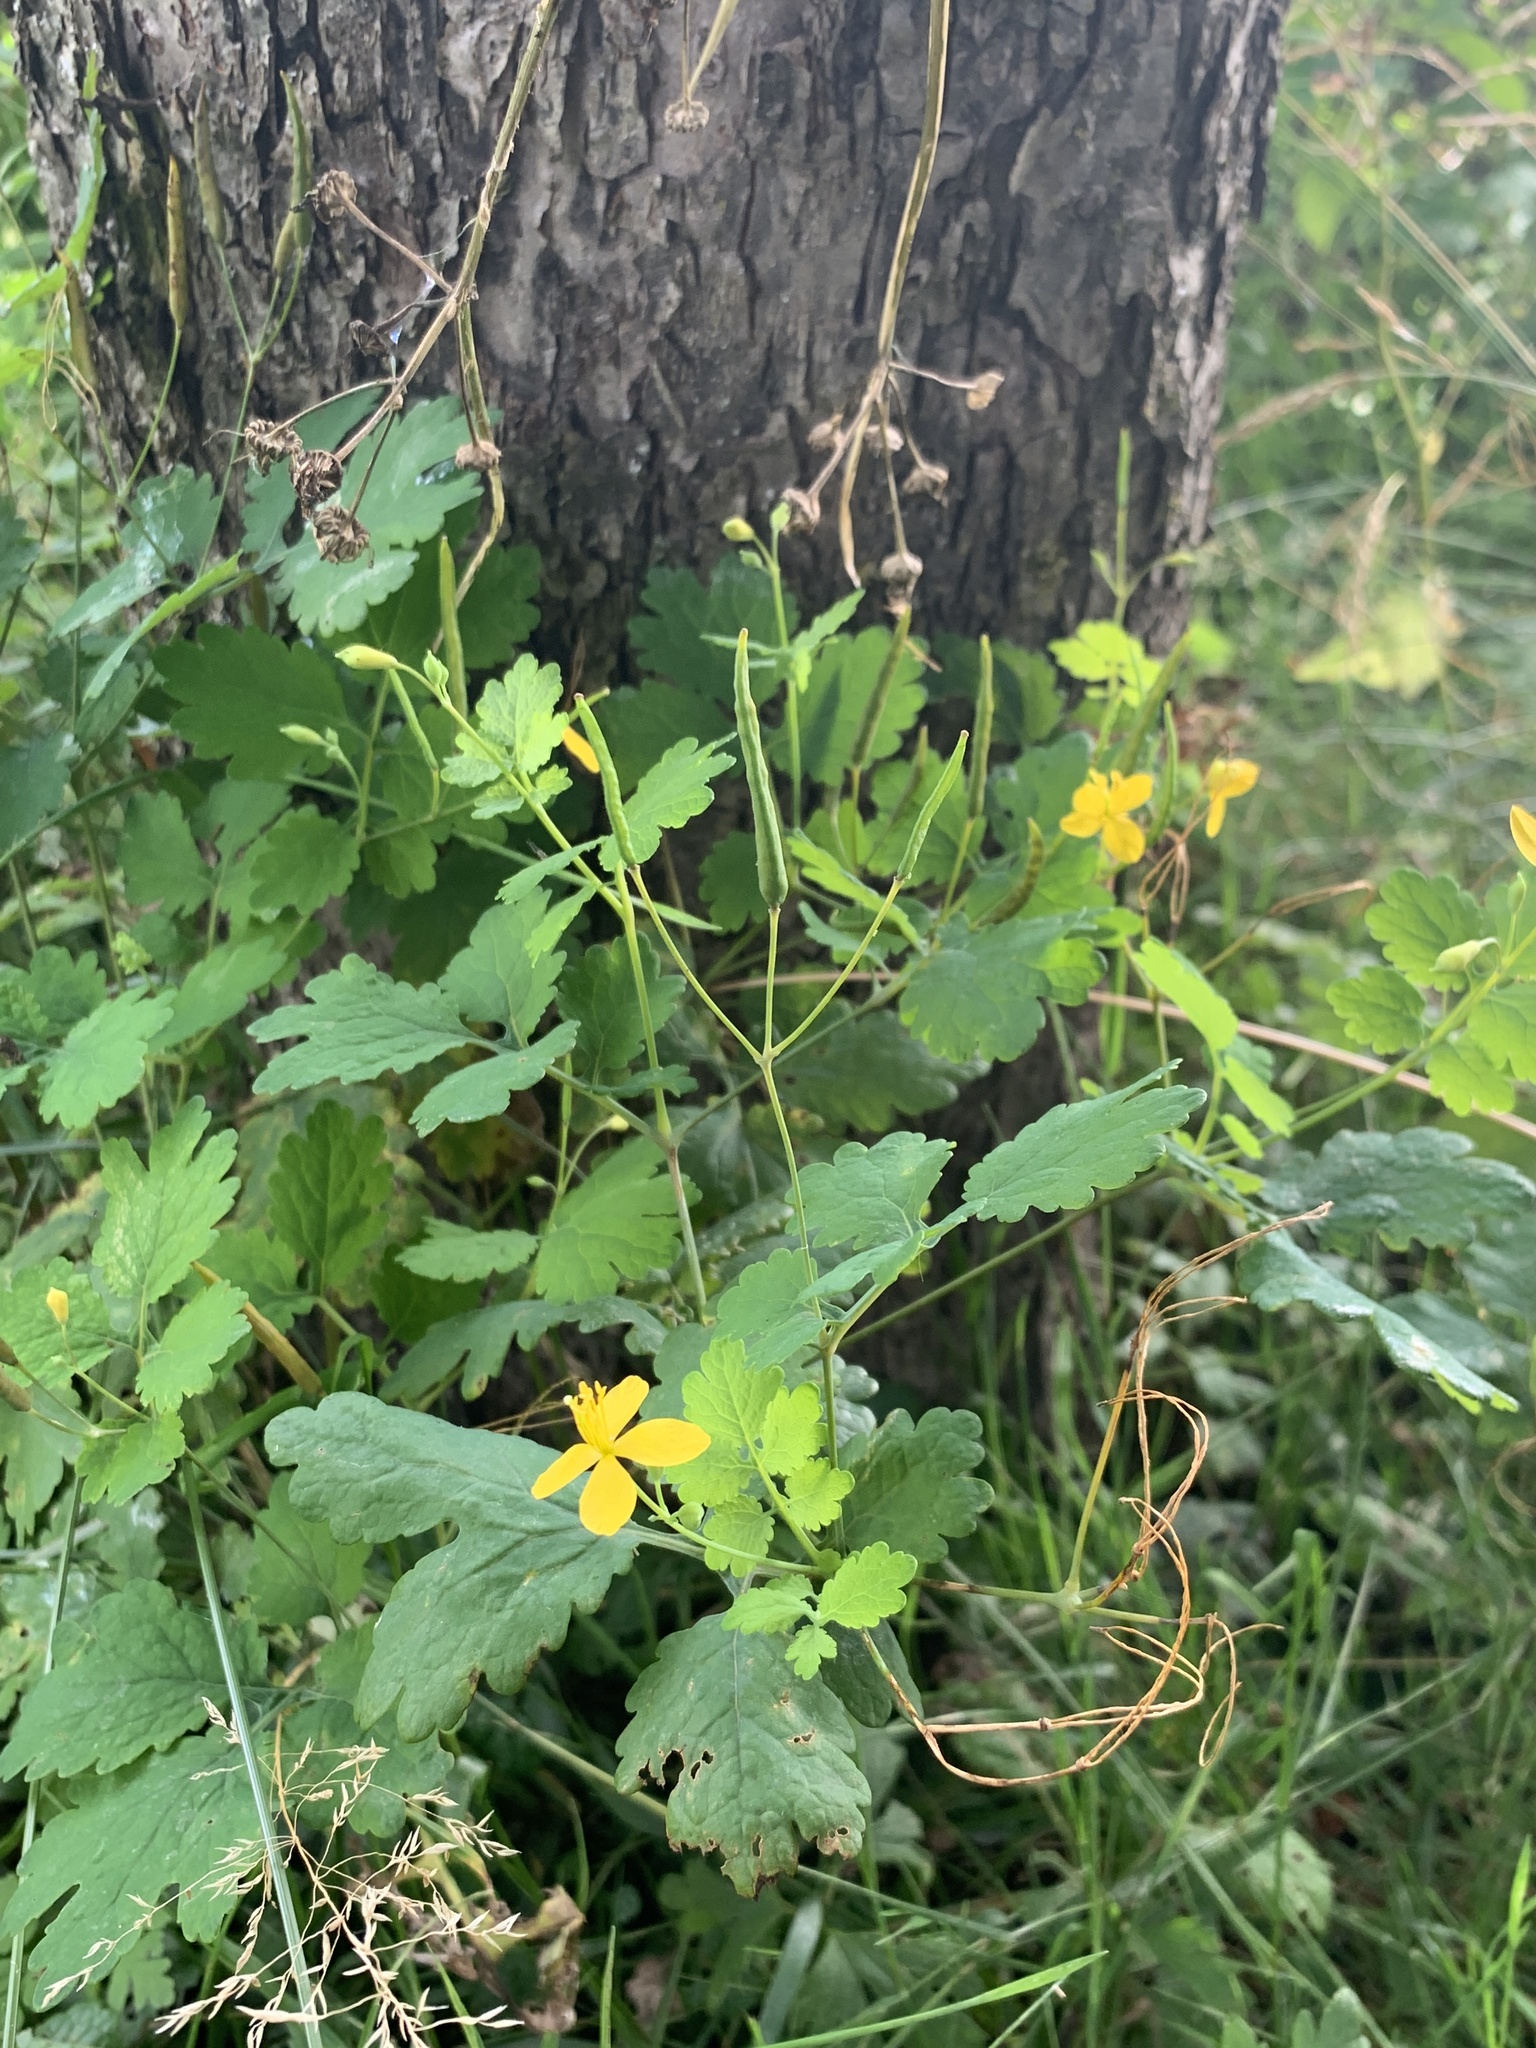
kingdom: Plantae
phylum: Tracheophyta
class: Magnoliopsida
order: Ranunculales
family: Papaveraceae
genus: Chelidonium
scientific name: Chelidonium majus
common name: Greater celandine
